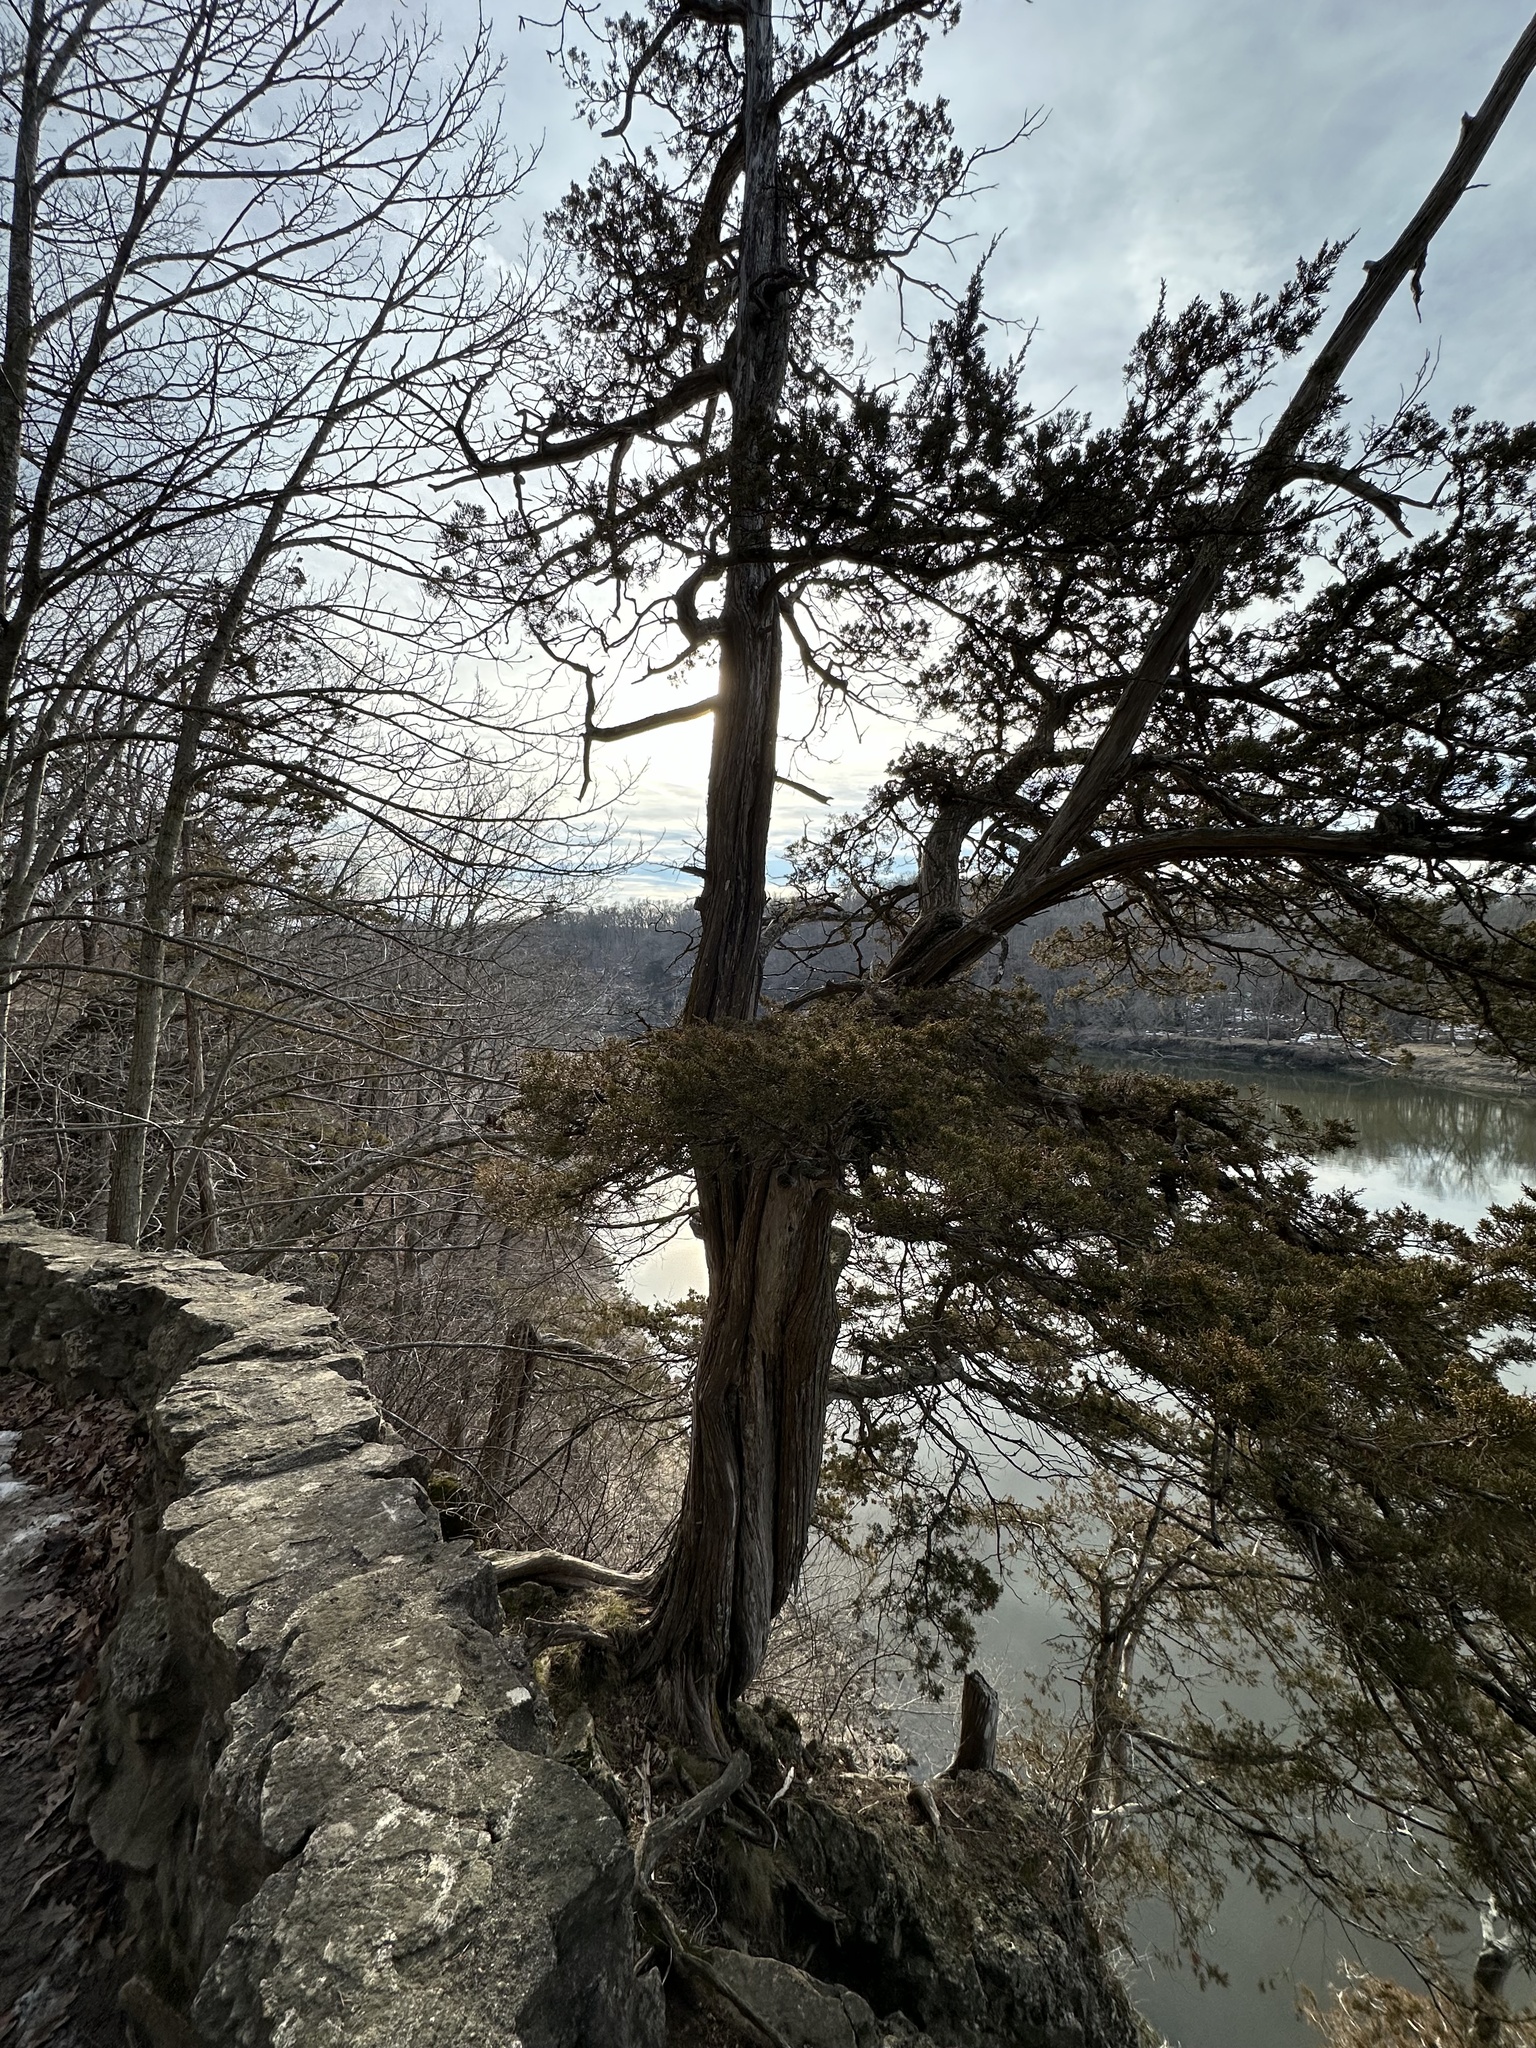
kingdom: Plantae
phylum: Tracheophyta
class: Pinopsida
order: Pinales
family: Cupressaceae
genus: Juniperus
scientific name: Juniperus virginiana
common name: Red juniper
